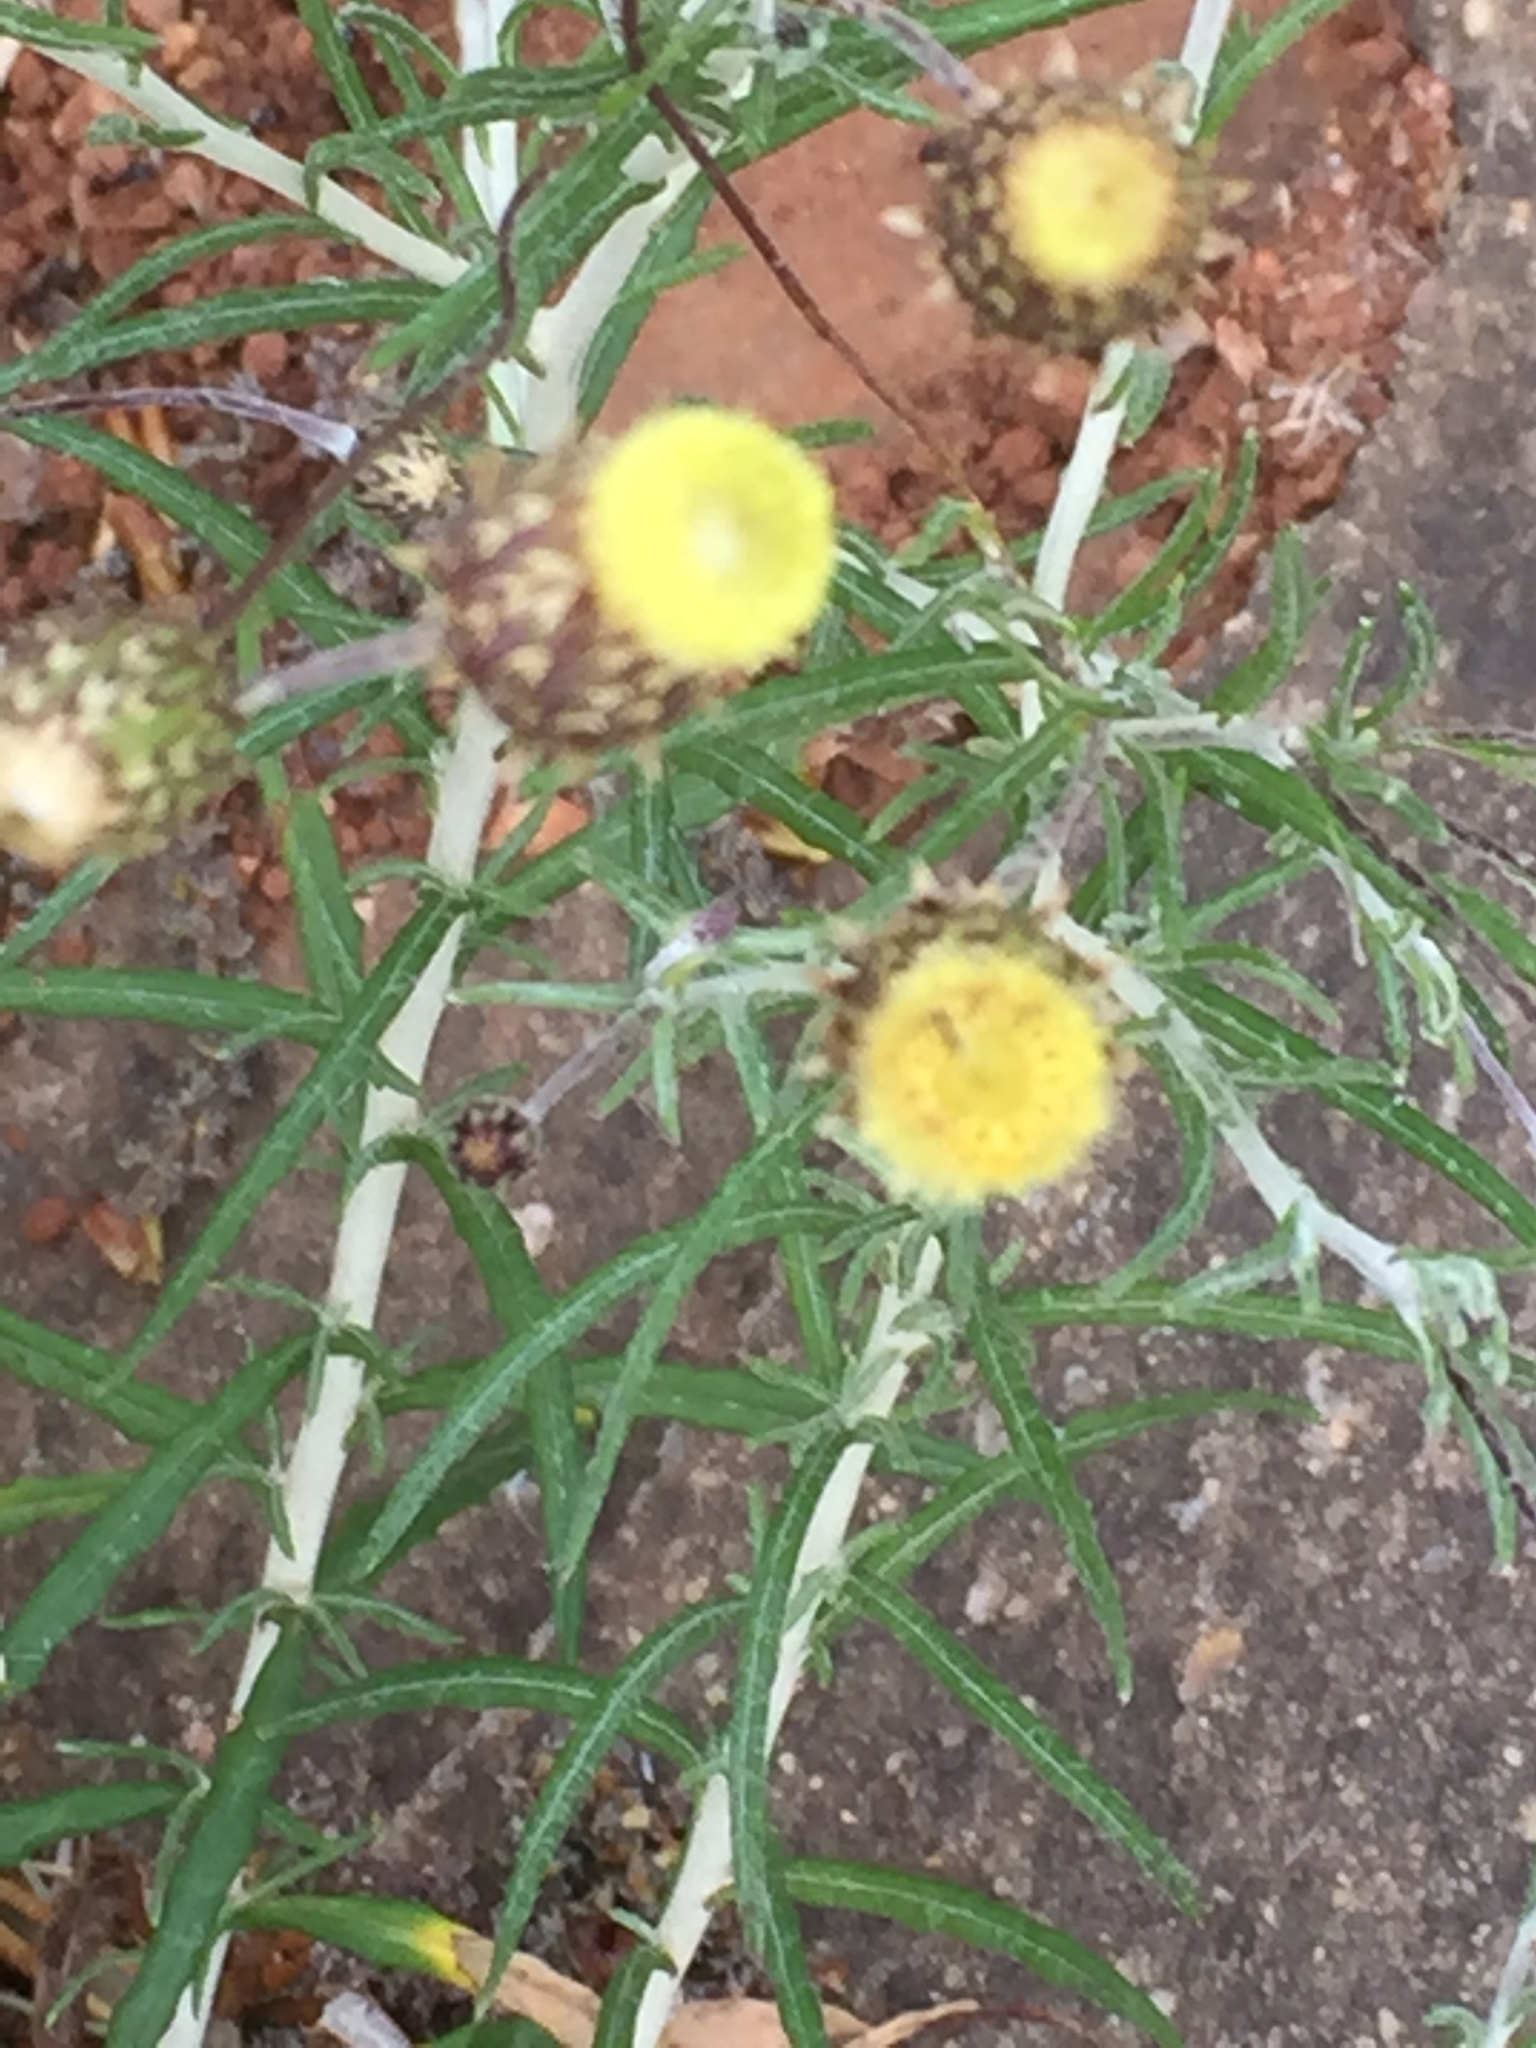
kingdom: Plantae
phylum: Tracheophyta
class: Magnoliopsida
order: Asterales
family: Asteraceae
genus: Phagnalon
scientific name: Phagnalon saxatile
